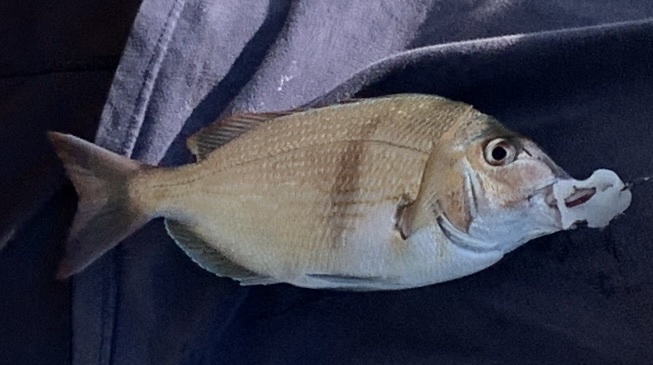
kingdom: Animalia
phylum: Chordata
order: Perciformes
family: Sparidae
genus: Stenotomus
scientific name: Stenotomus chrysops
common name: Scup
